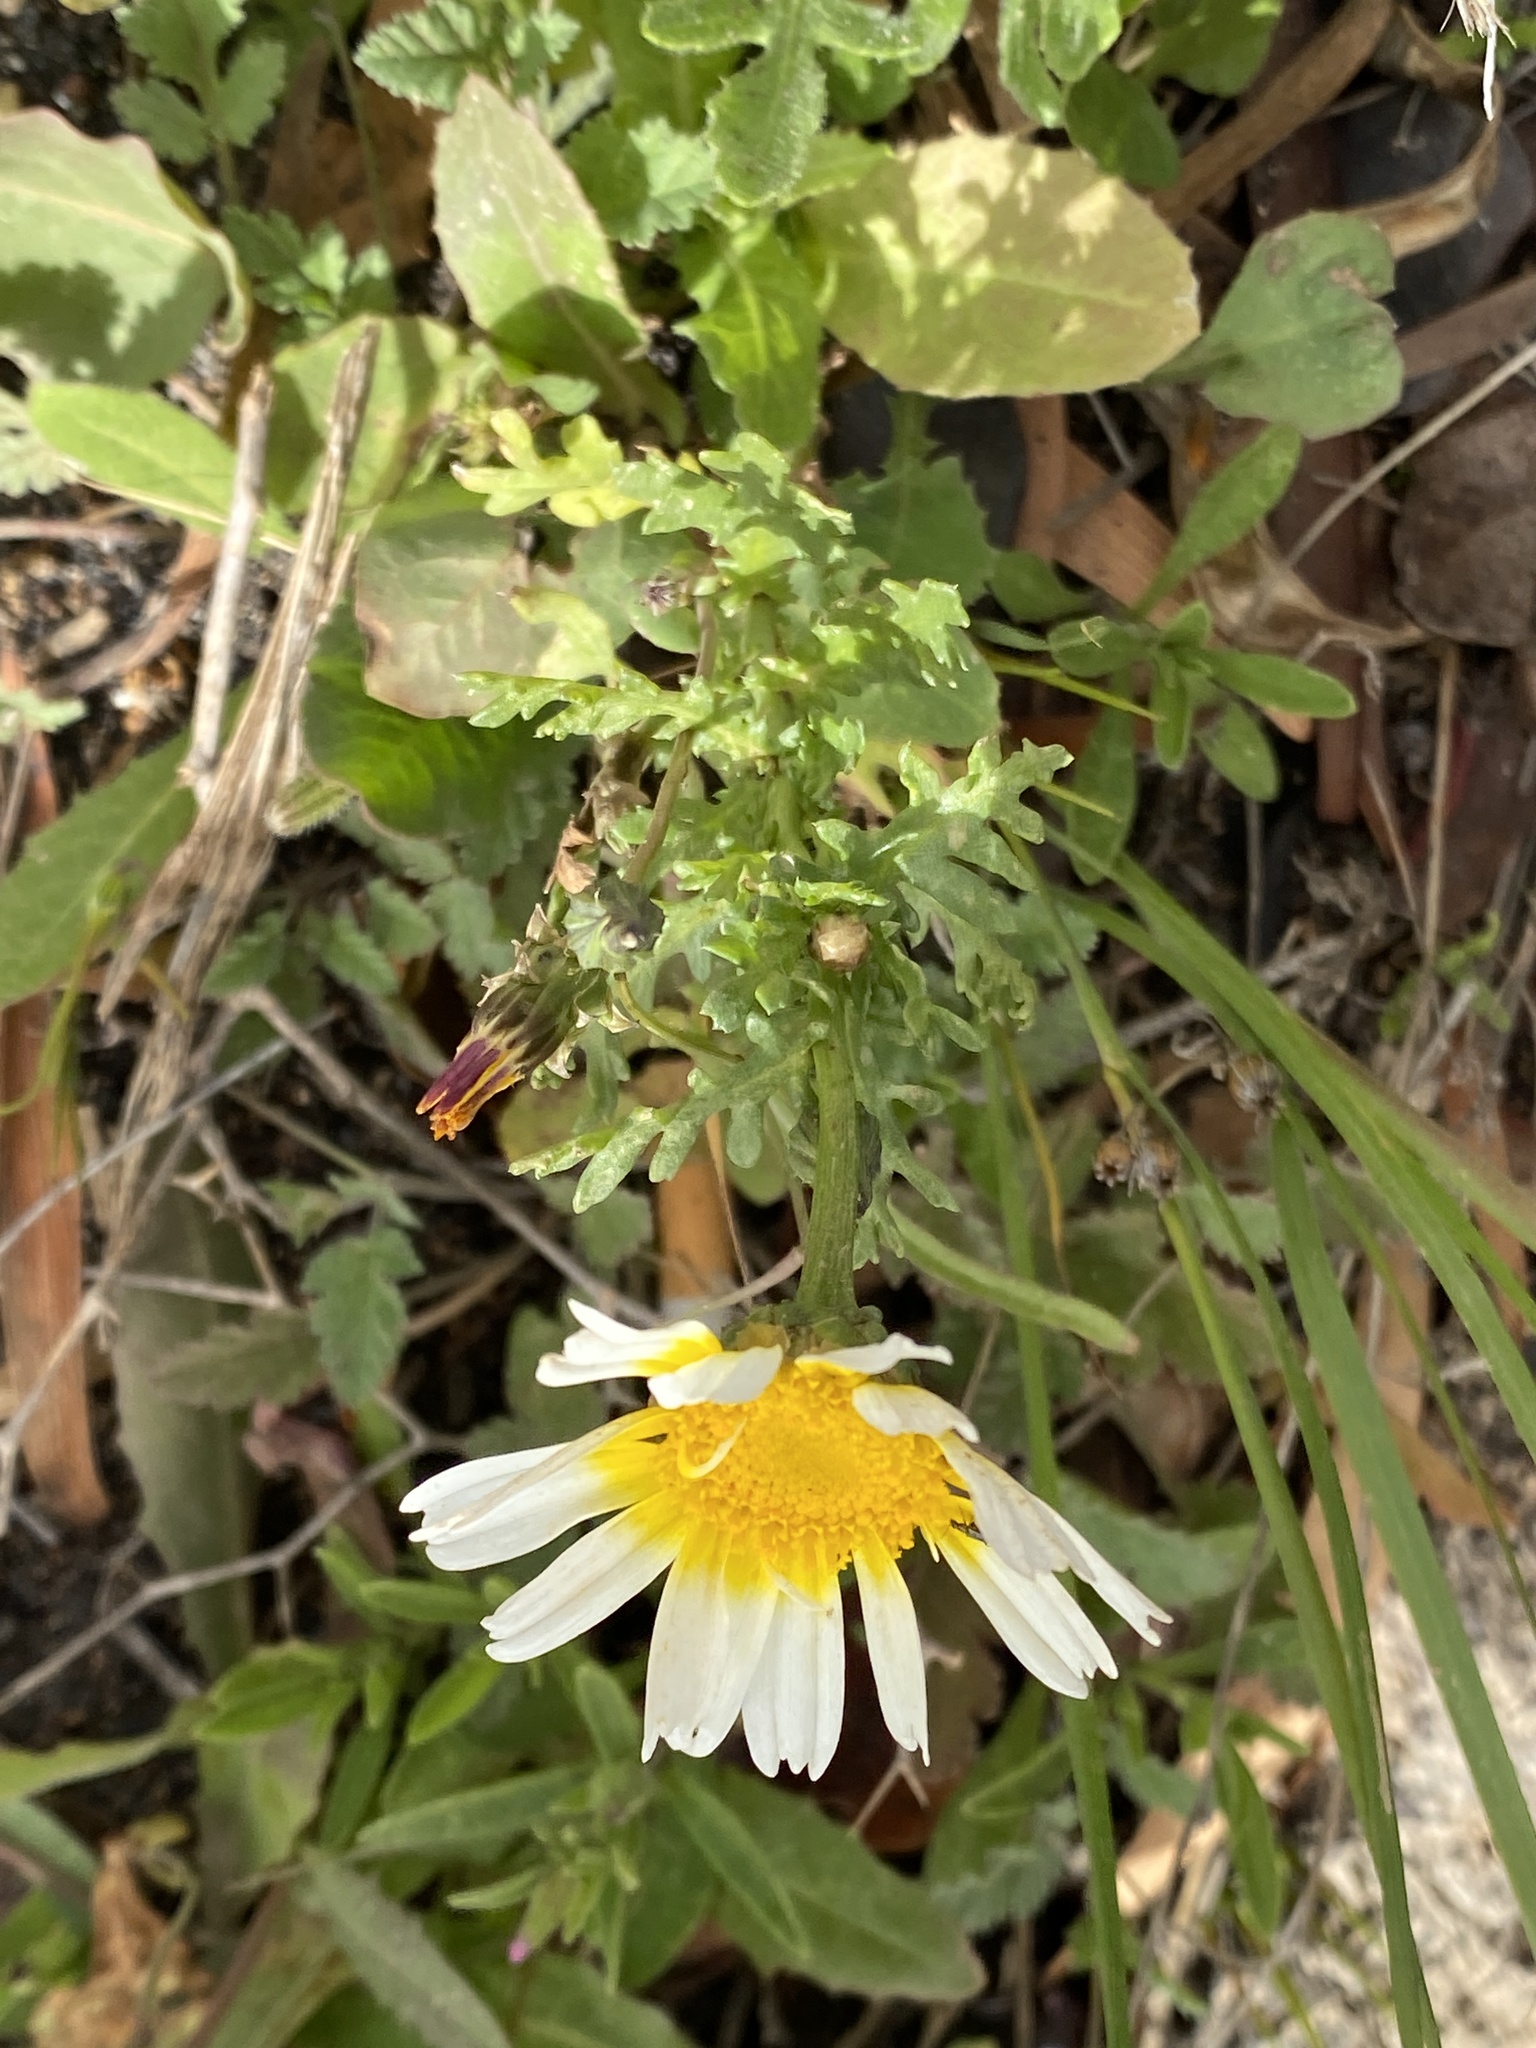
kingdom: Plantae
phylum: Tracheophyta
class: Magnoliopsida
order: Asterales
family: Asteraceae
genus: Glebionis
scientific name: Glebionis coronaria
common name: Crowndaisy
